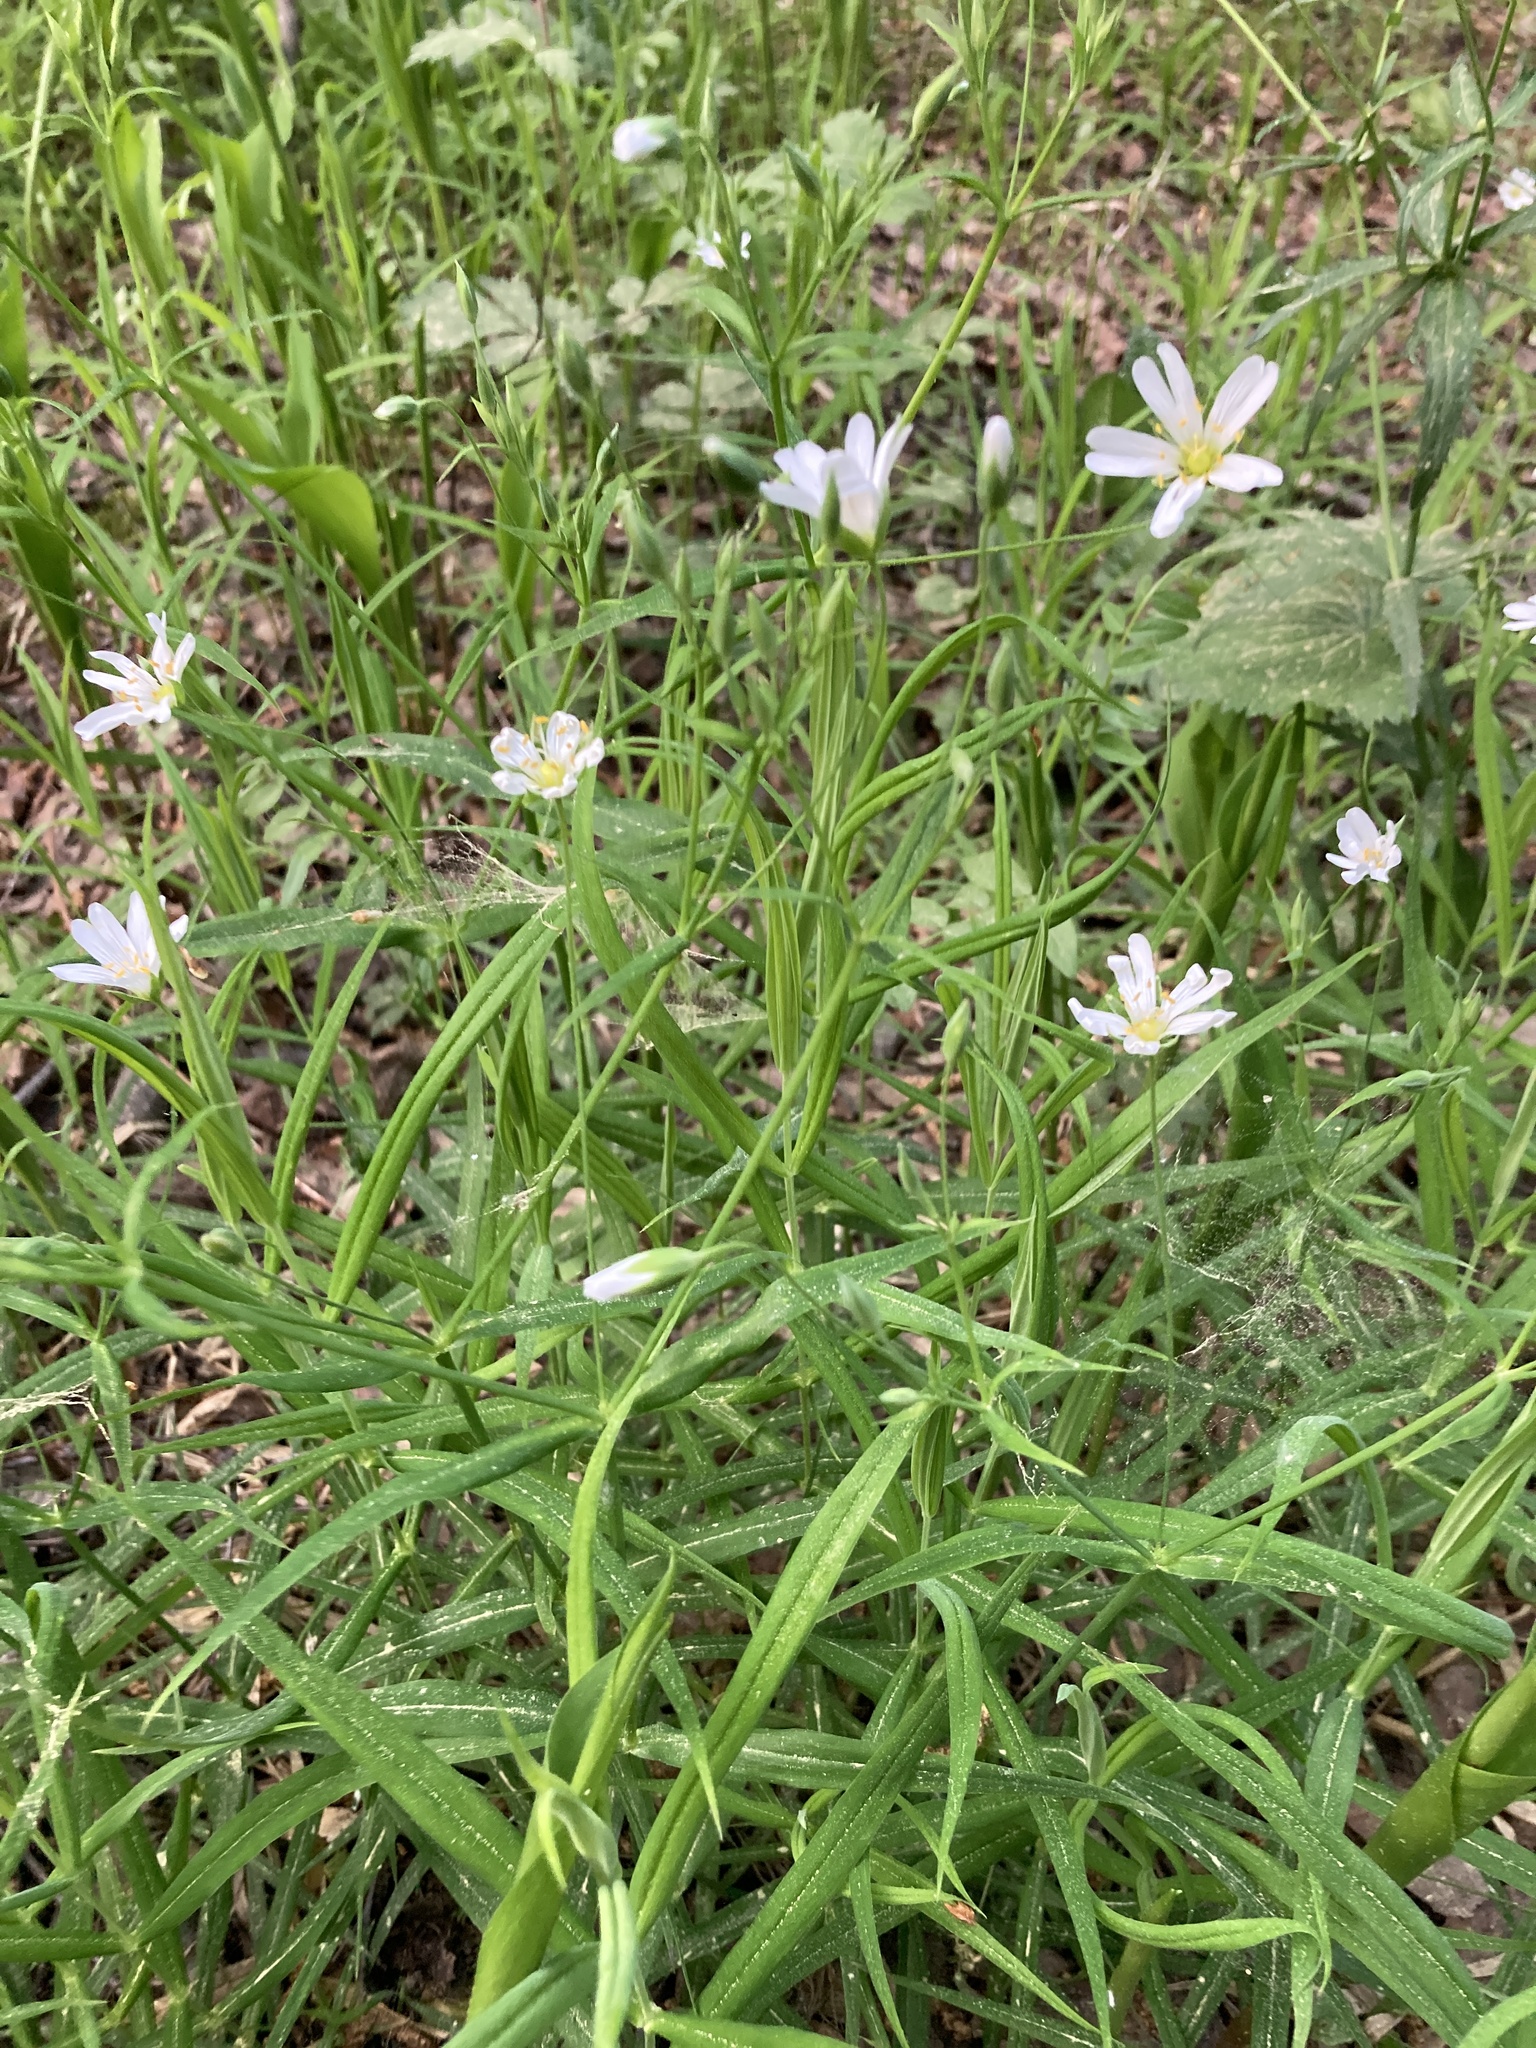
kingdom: Plantae
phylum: Tracheophyta
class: Magnoliopsida
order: Caryophyllales
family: Caryophyllaceae
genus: Rabelera
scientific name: Rabelera holostea
